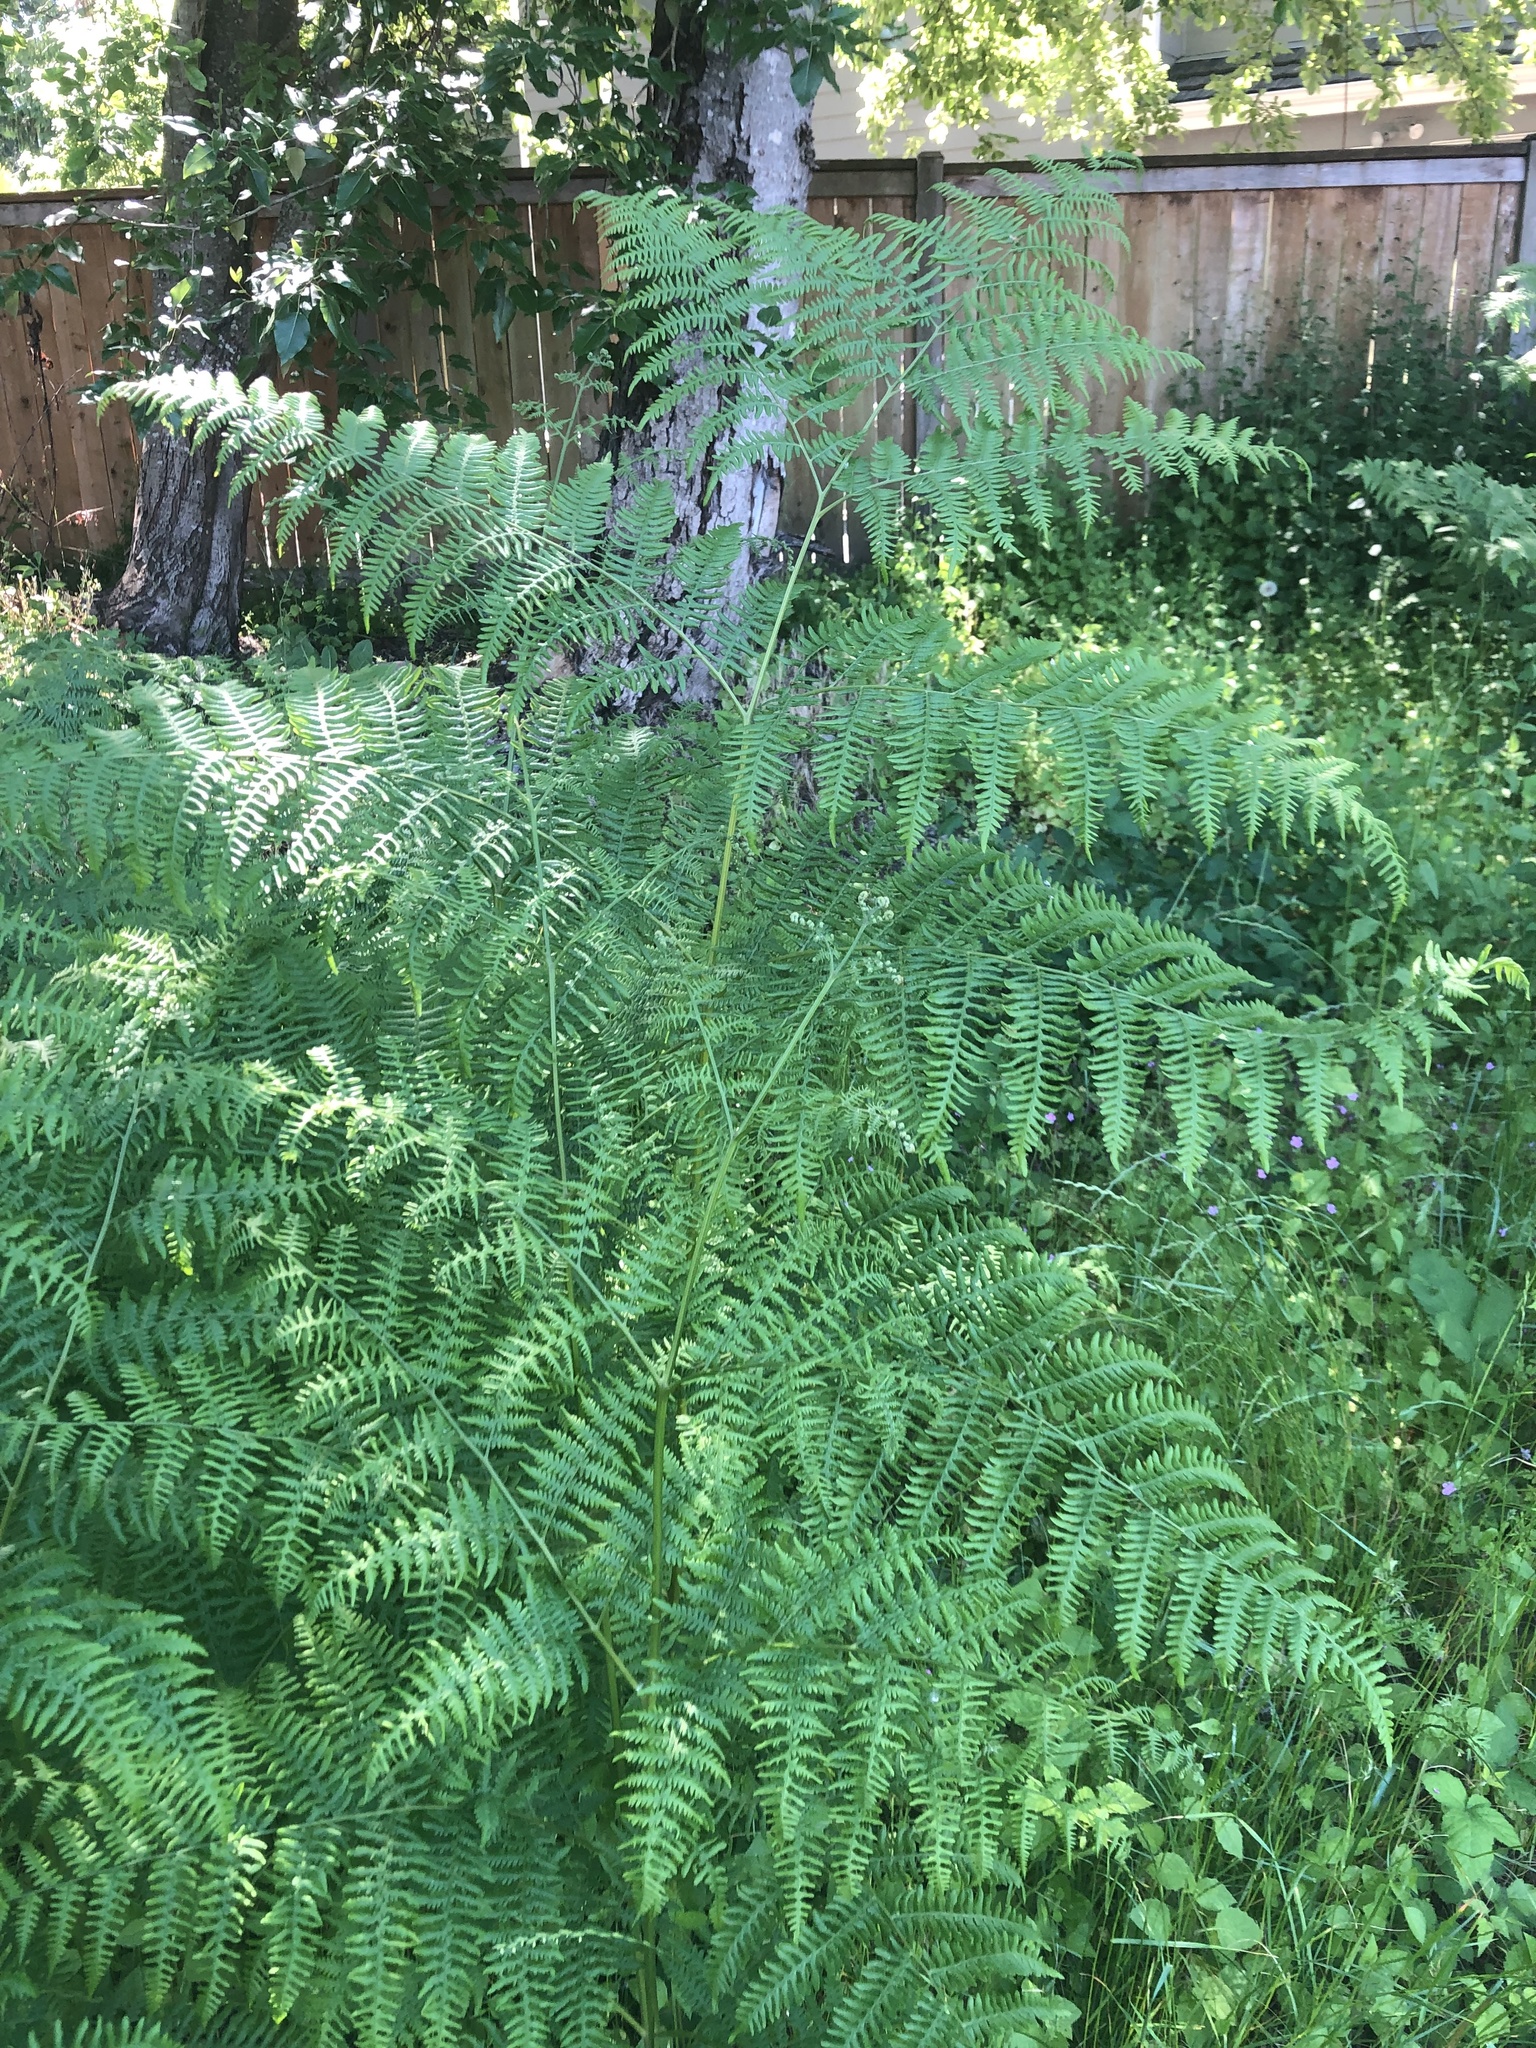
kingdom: Plantae
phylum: Tracheophyta
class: Polypodiopsida
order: Polypodiales
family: Dennstaedtiaceae
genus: Pteridium
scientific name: Pteridium aquilinum
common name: Bracken
